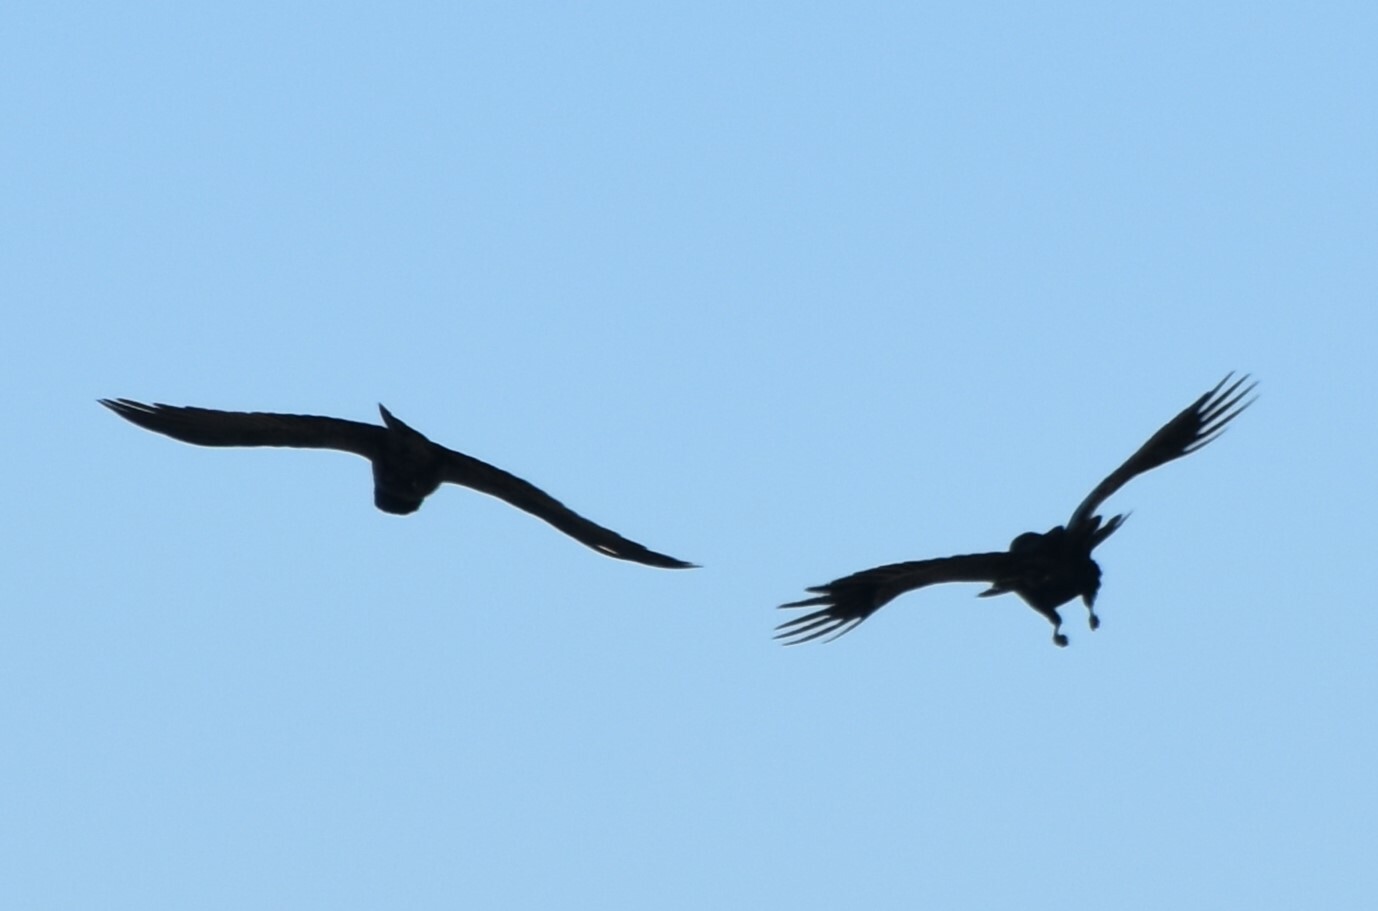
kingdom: Animalia
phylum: Chordata
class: Aves
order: Passeriformes
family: Corvidae
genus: Corvus
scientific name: Corvus corax
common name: Common raven
